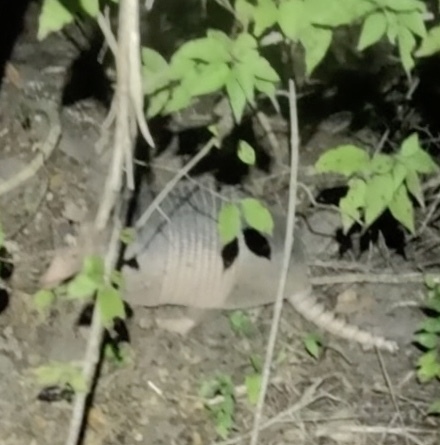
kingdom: Animalia
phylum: Chordata
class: Mammalia
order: Cingulata
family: Dasypodidae
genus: Dasypus
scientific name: Dasypus novemcinctus
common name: Nine-banded armadillo
